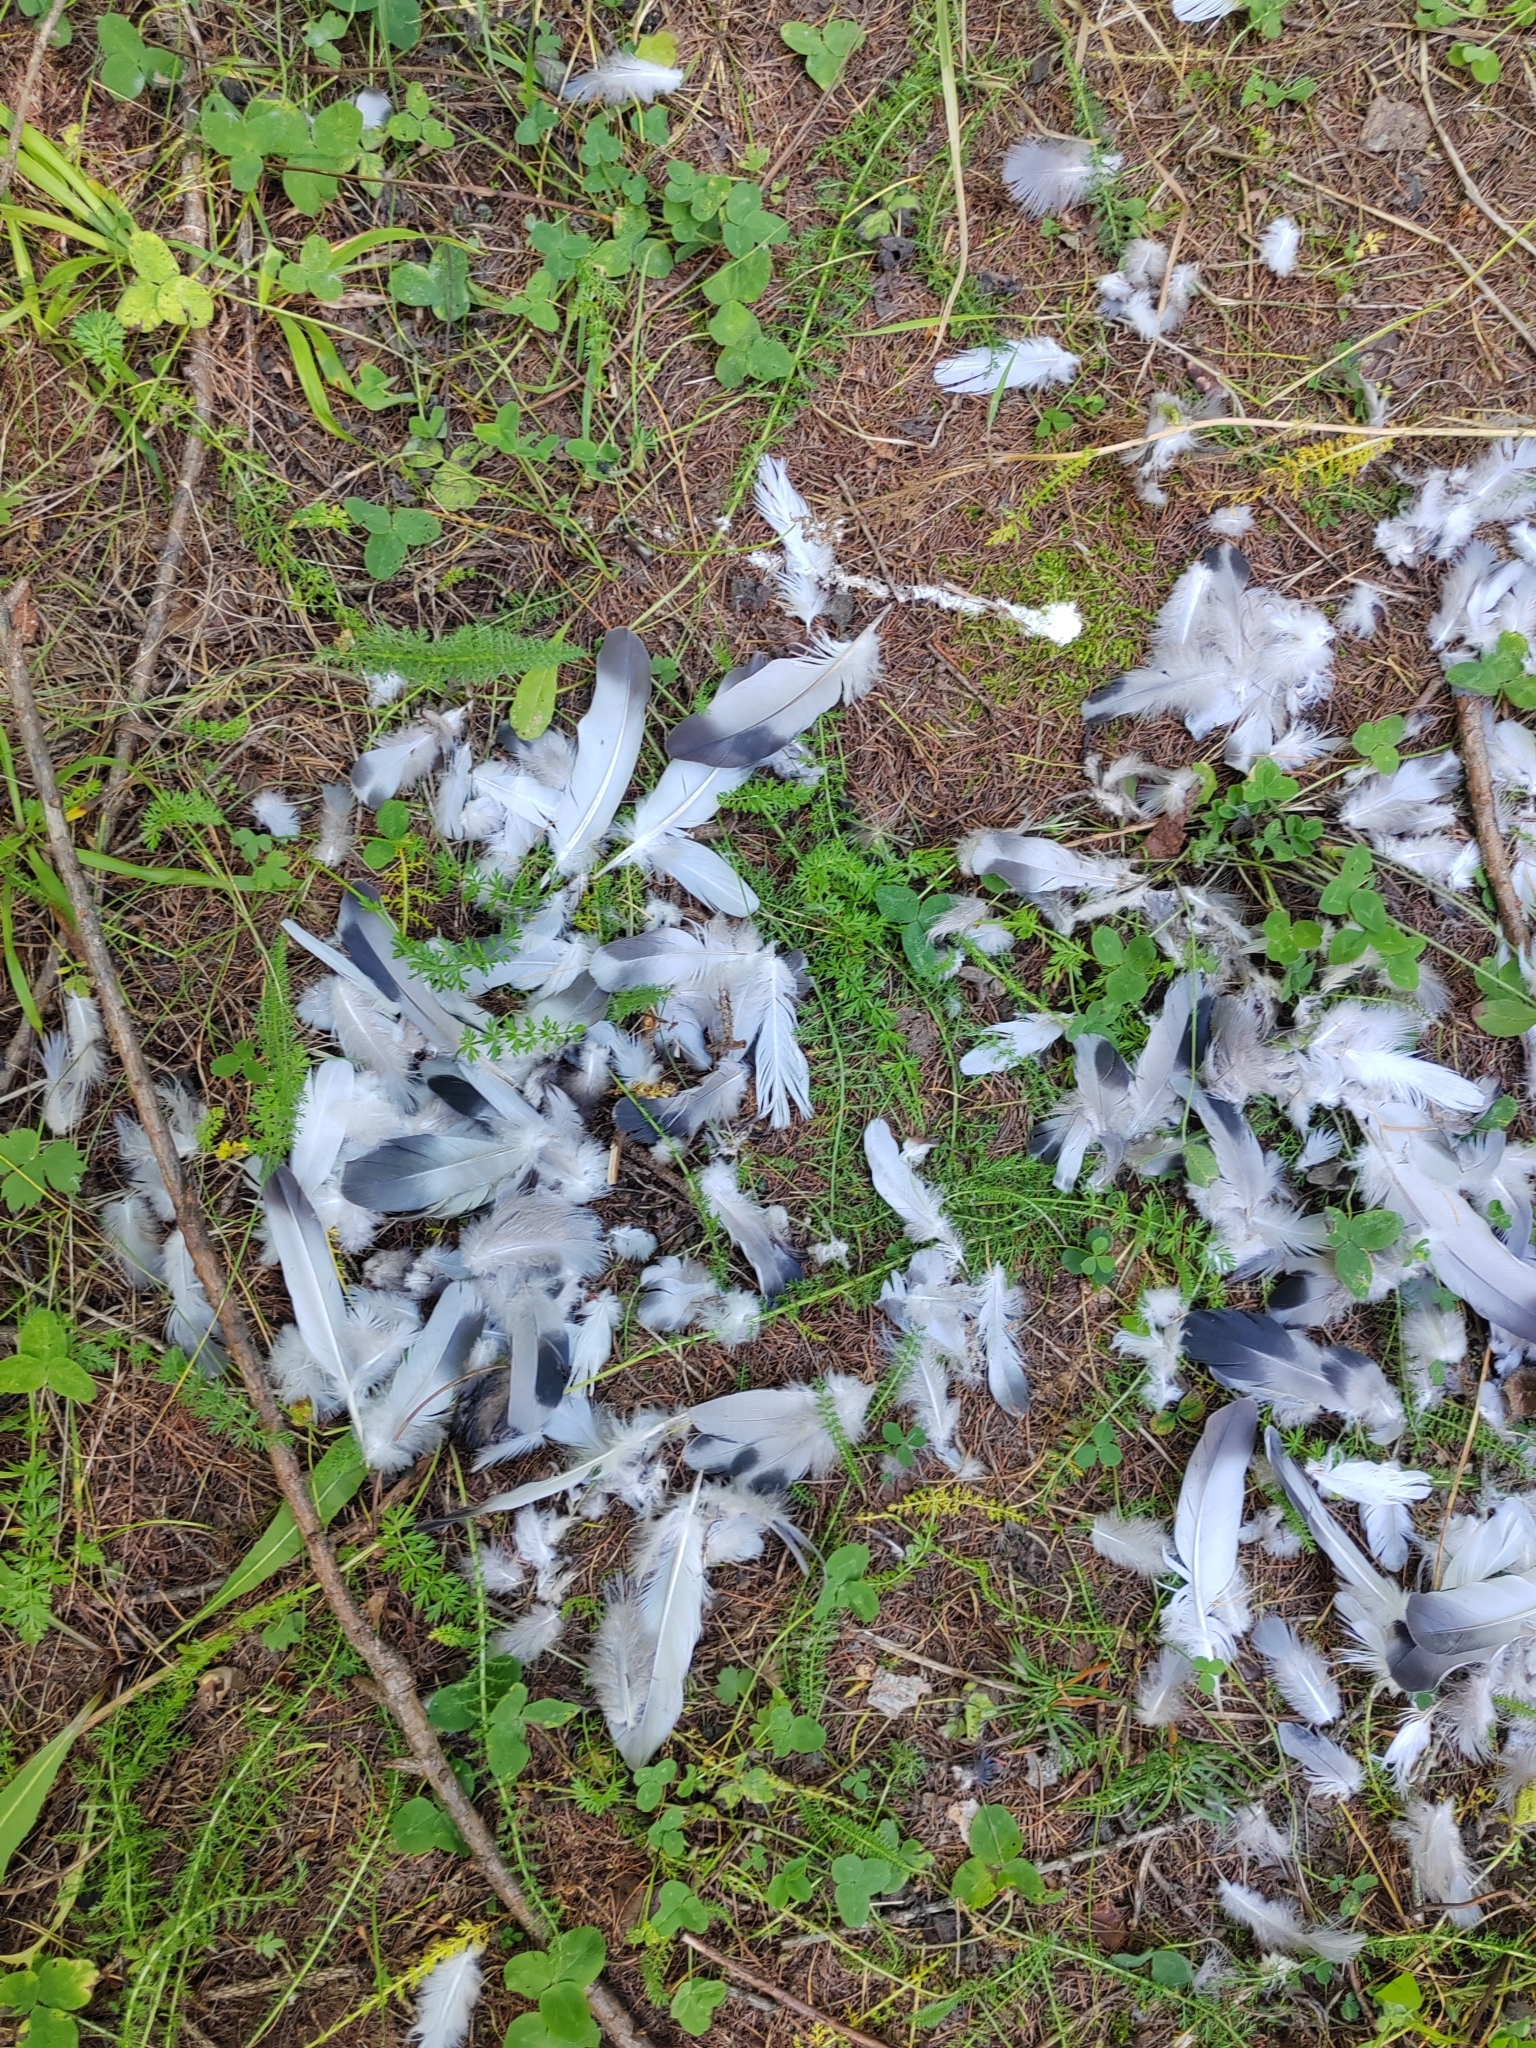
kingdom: Animalia
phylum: Chordata
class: Aves
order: Columbiformes
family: Columbidae
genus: Columba
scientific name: Columba livia
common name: Rock pigeon
